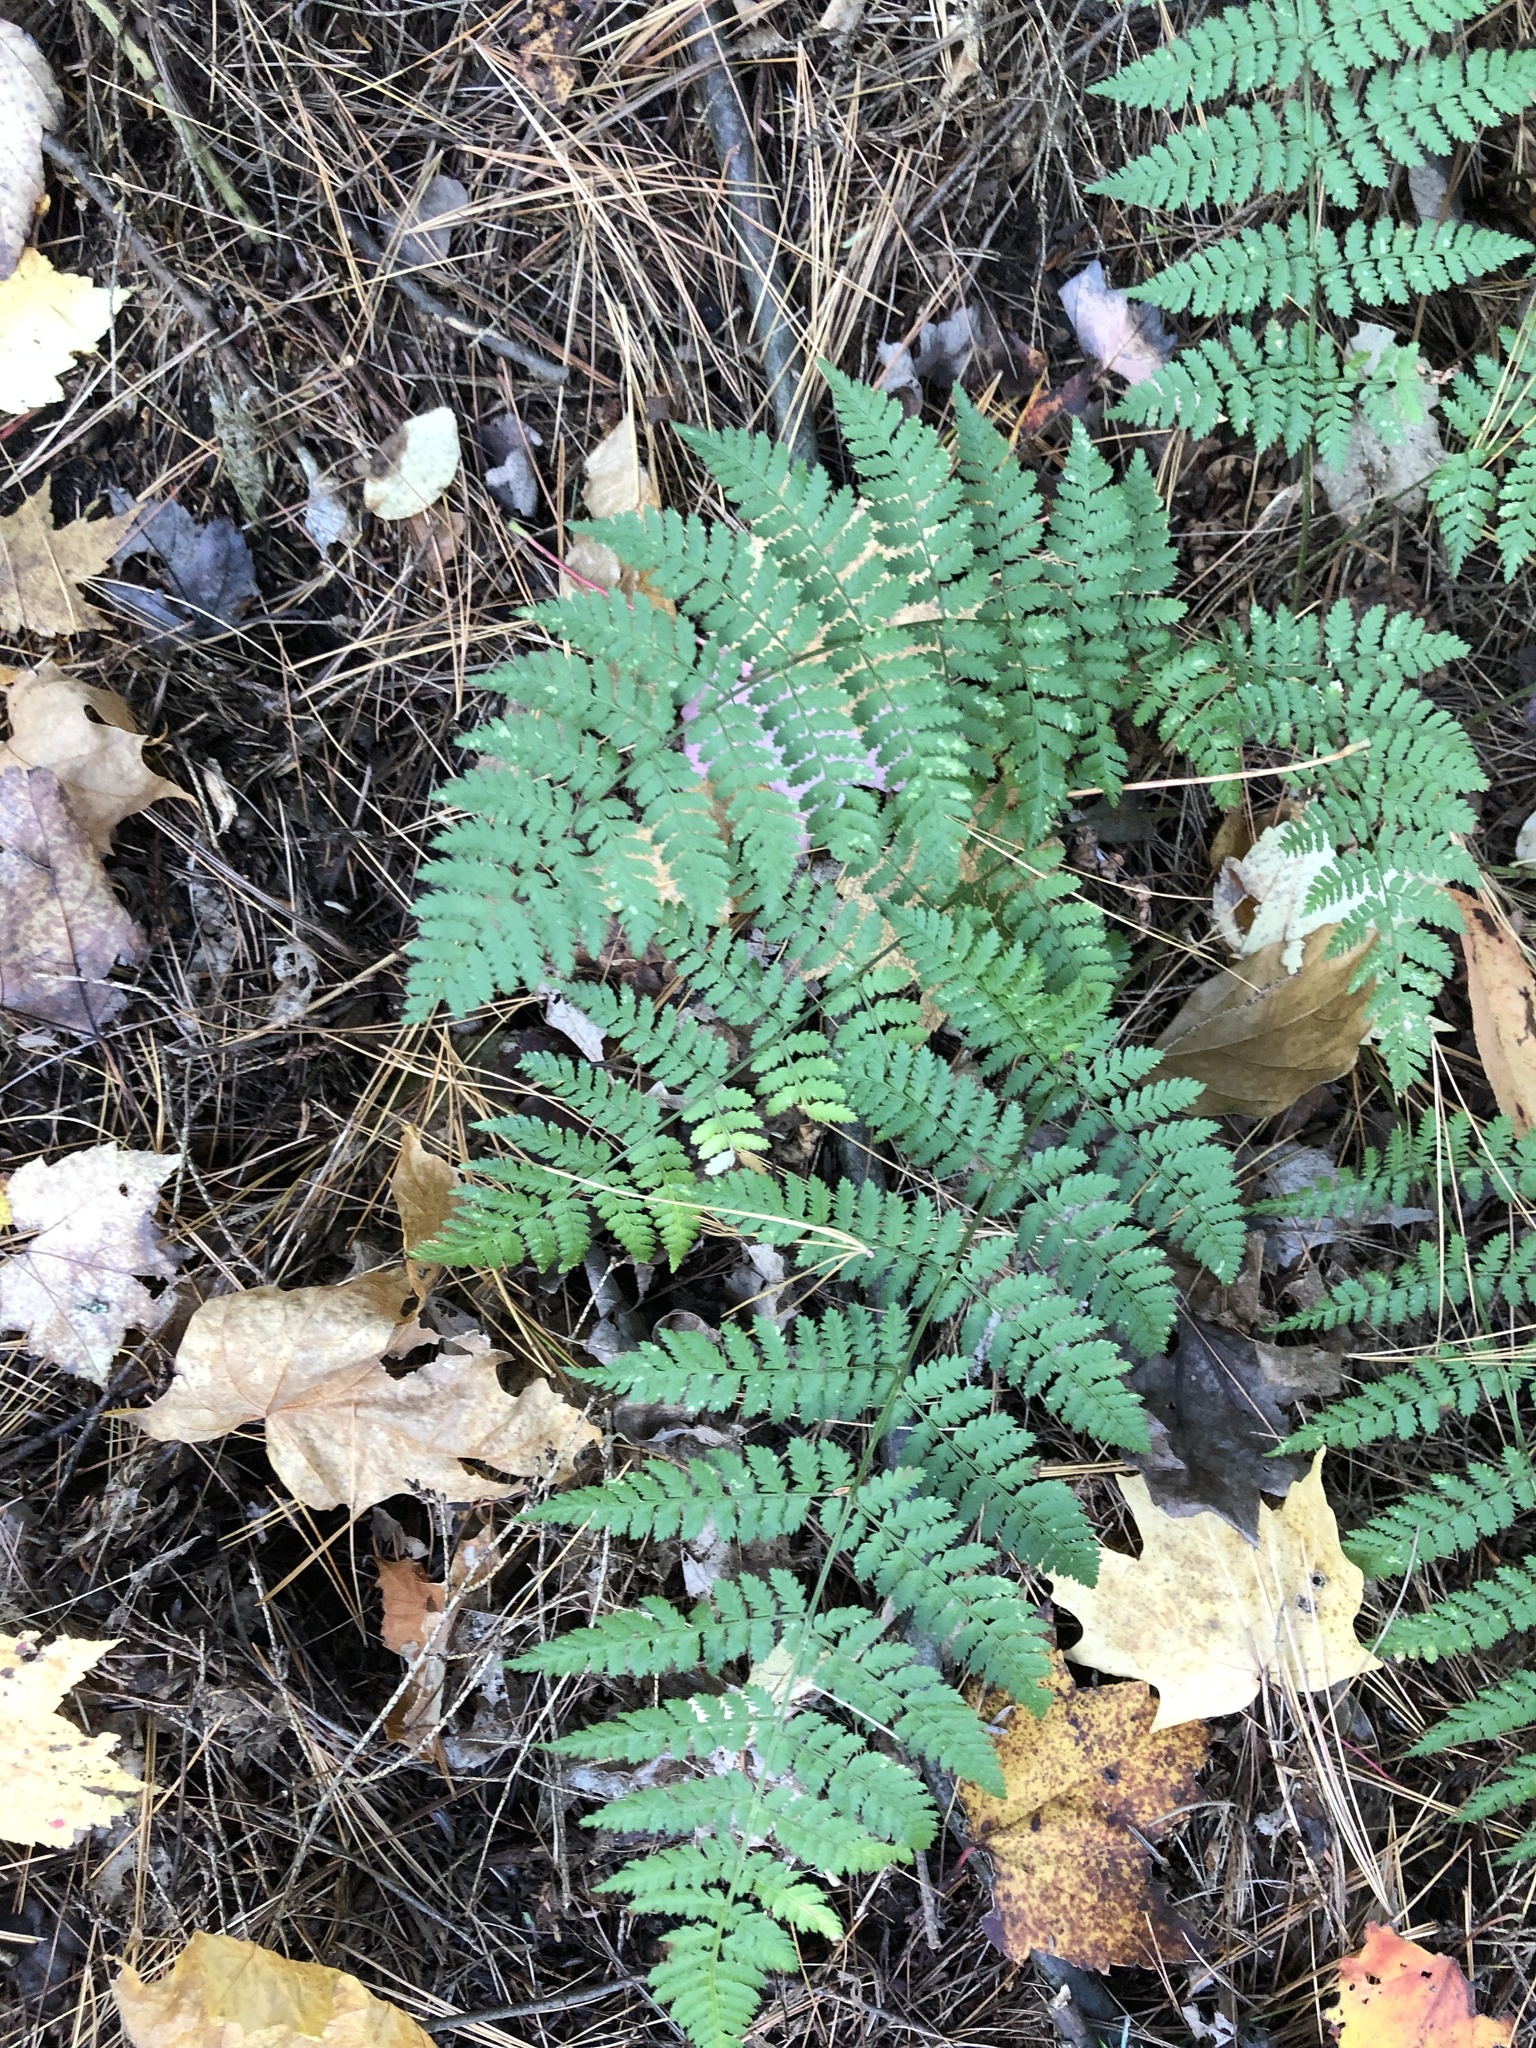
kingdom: Plantae
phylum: Tracheophyta
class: Polypodiopsida
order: Polypodiales
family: Dryopteridaceae
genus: Dryopteris
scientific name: Dryopteris intermedia
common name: Evergreen wood fern
